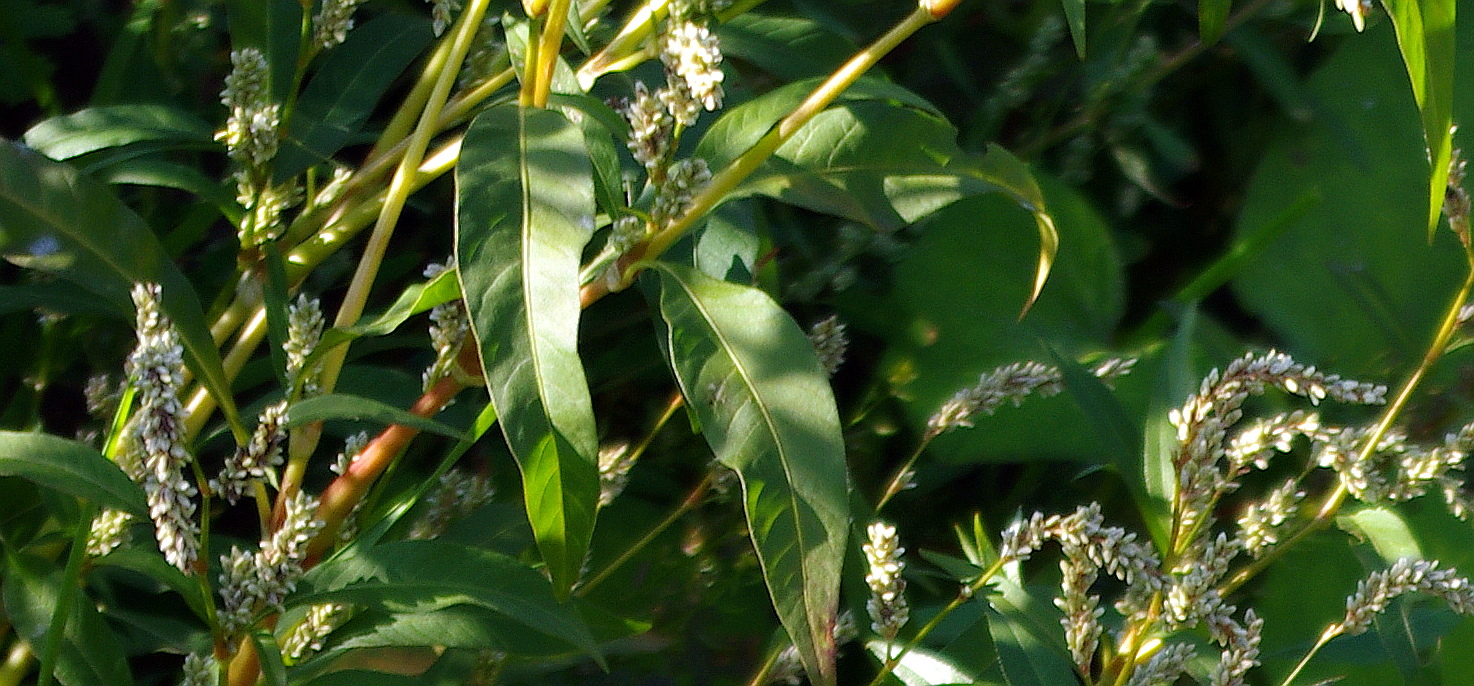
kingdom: Plantae
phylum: Tracheophyta
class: Magnoliopsida
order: Caryophyllales
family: Polygonaceae
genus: Persicaria
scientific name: Persicaria lapathifolia
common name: Curlytop knotweed
